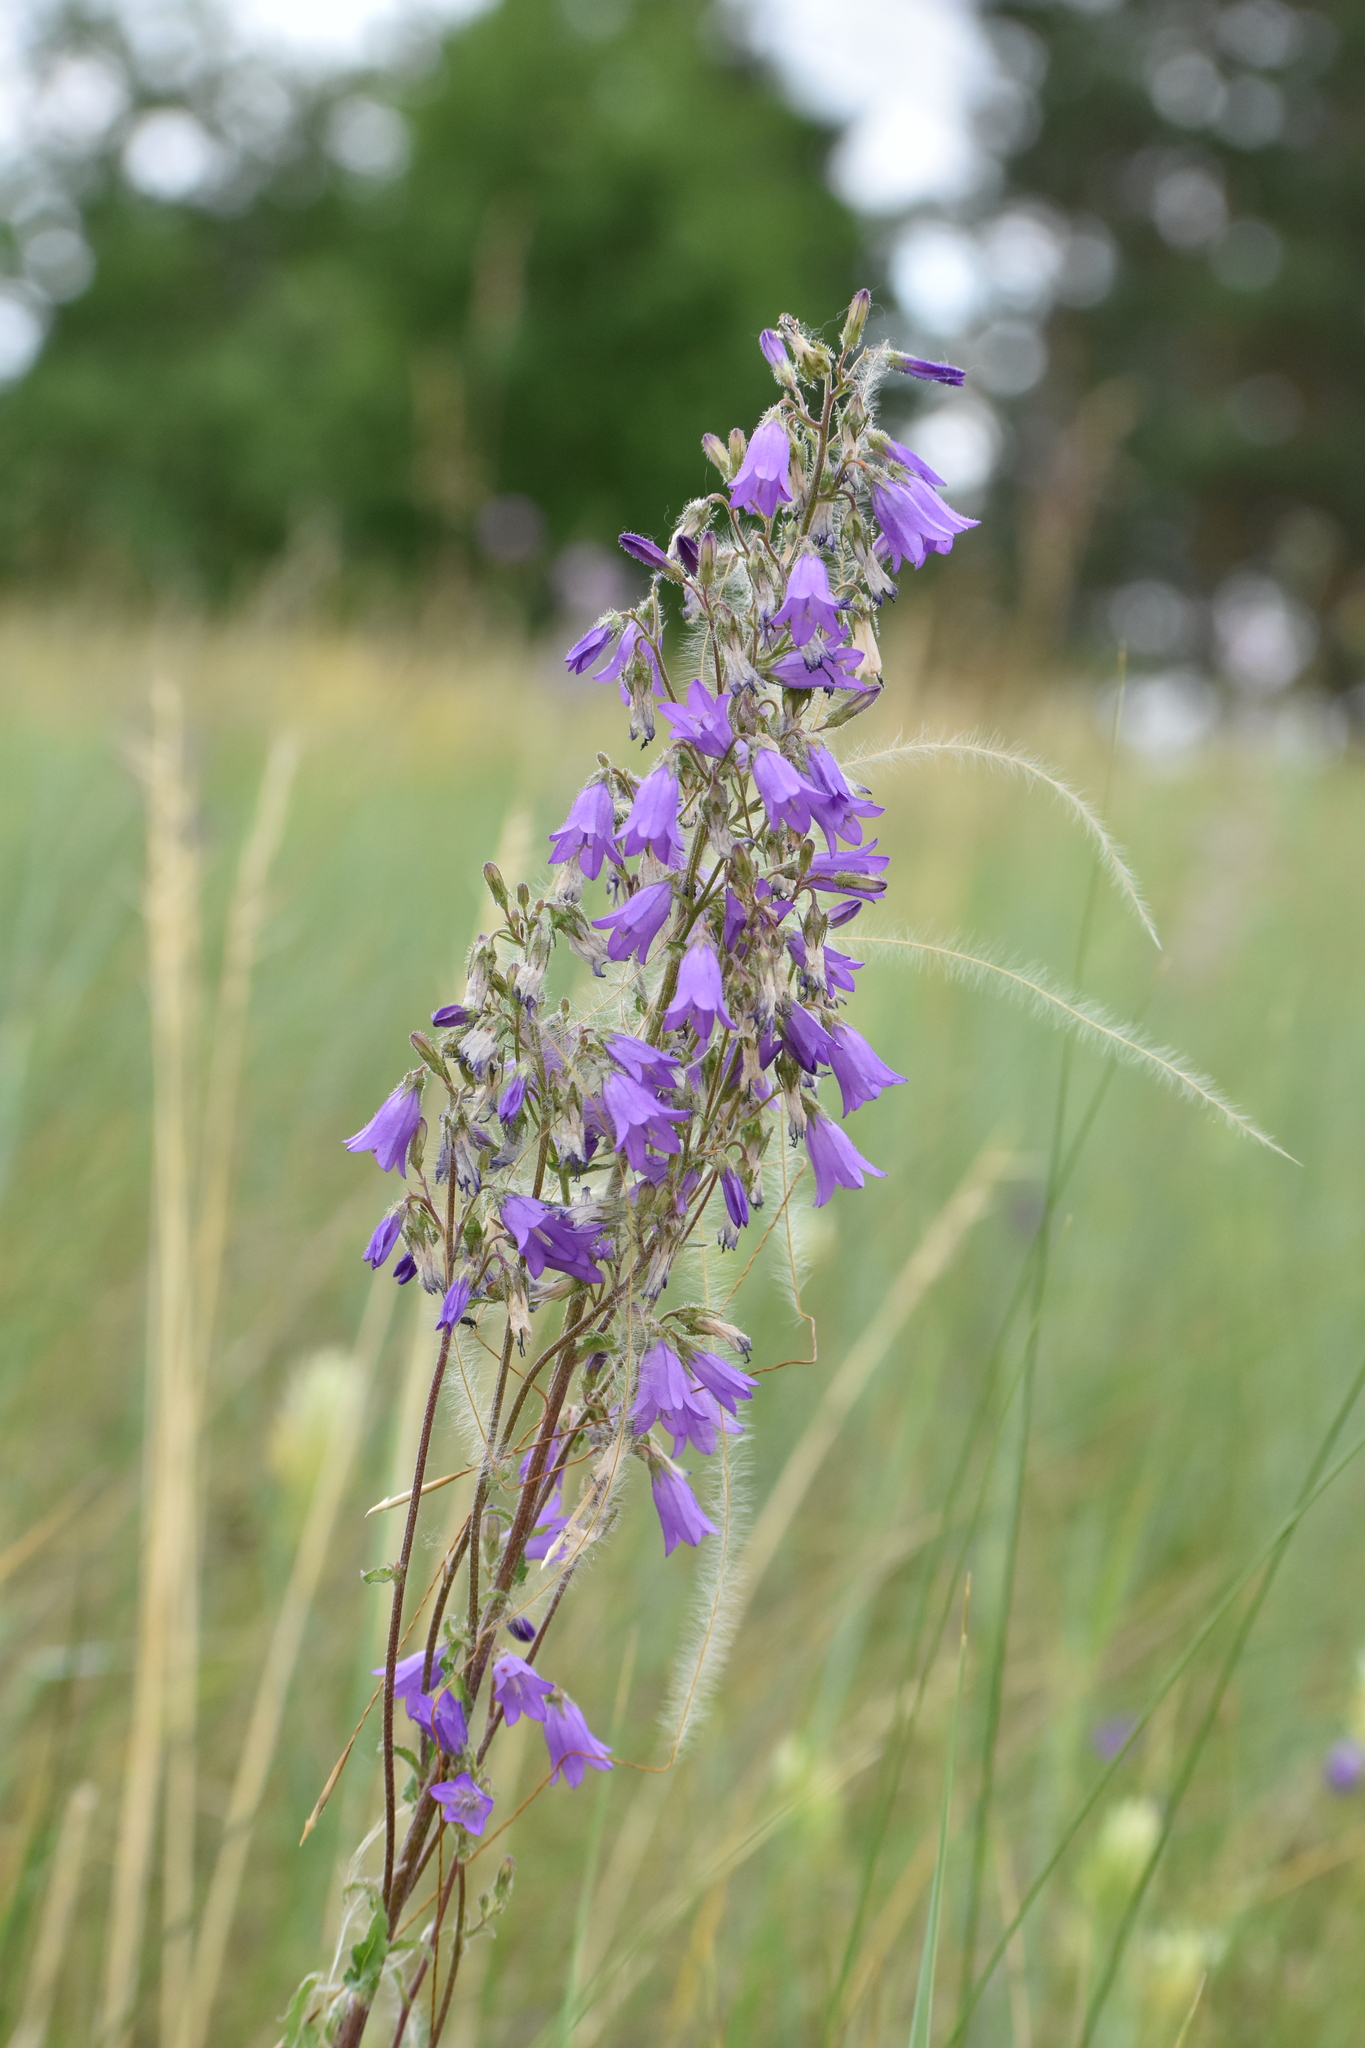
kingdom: Plantae
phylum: Tracheophyta
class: Magnoliopsida
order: Asterales
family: Campanulaceae
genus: Campanula
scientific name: Campanula sibirica
